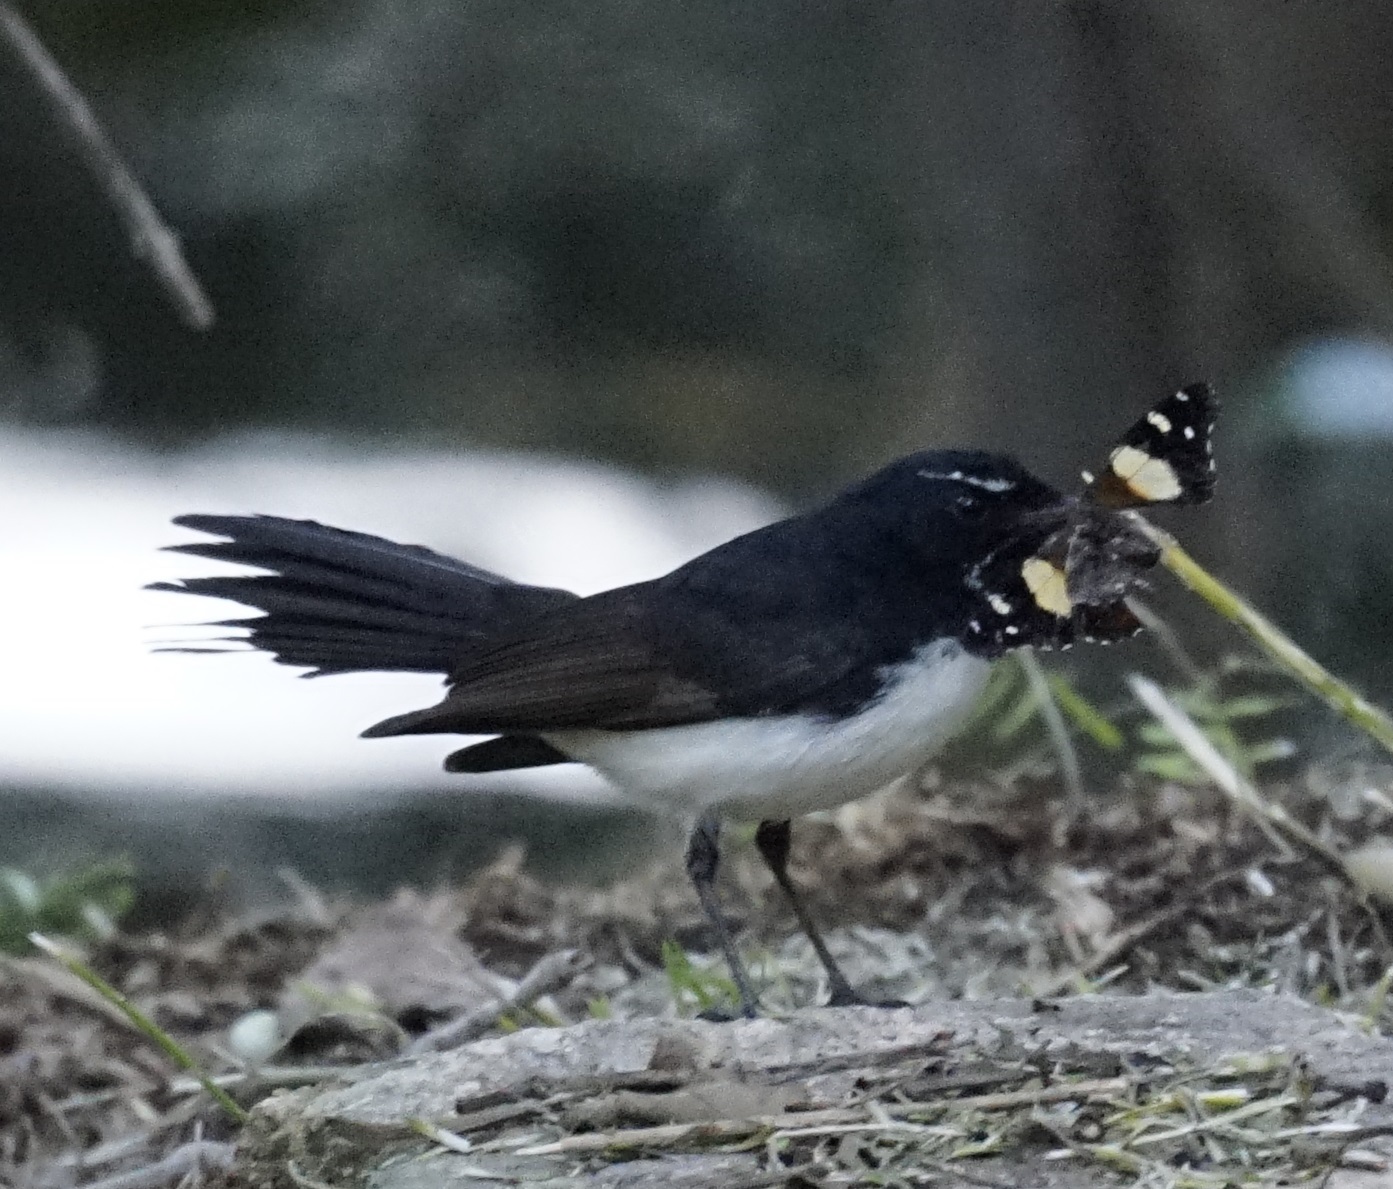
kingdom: Animalia
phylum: Chordata
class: Aves
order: Passeriformes
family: Rhipiduridae
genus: Rhipidura
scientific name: Rhipidura leucophrys
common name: Willie wagtail
